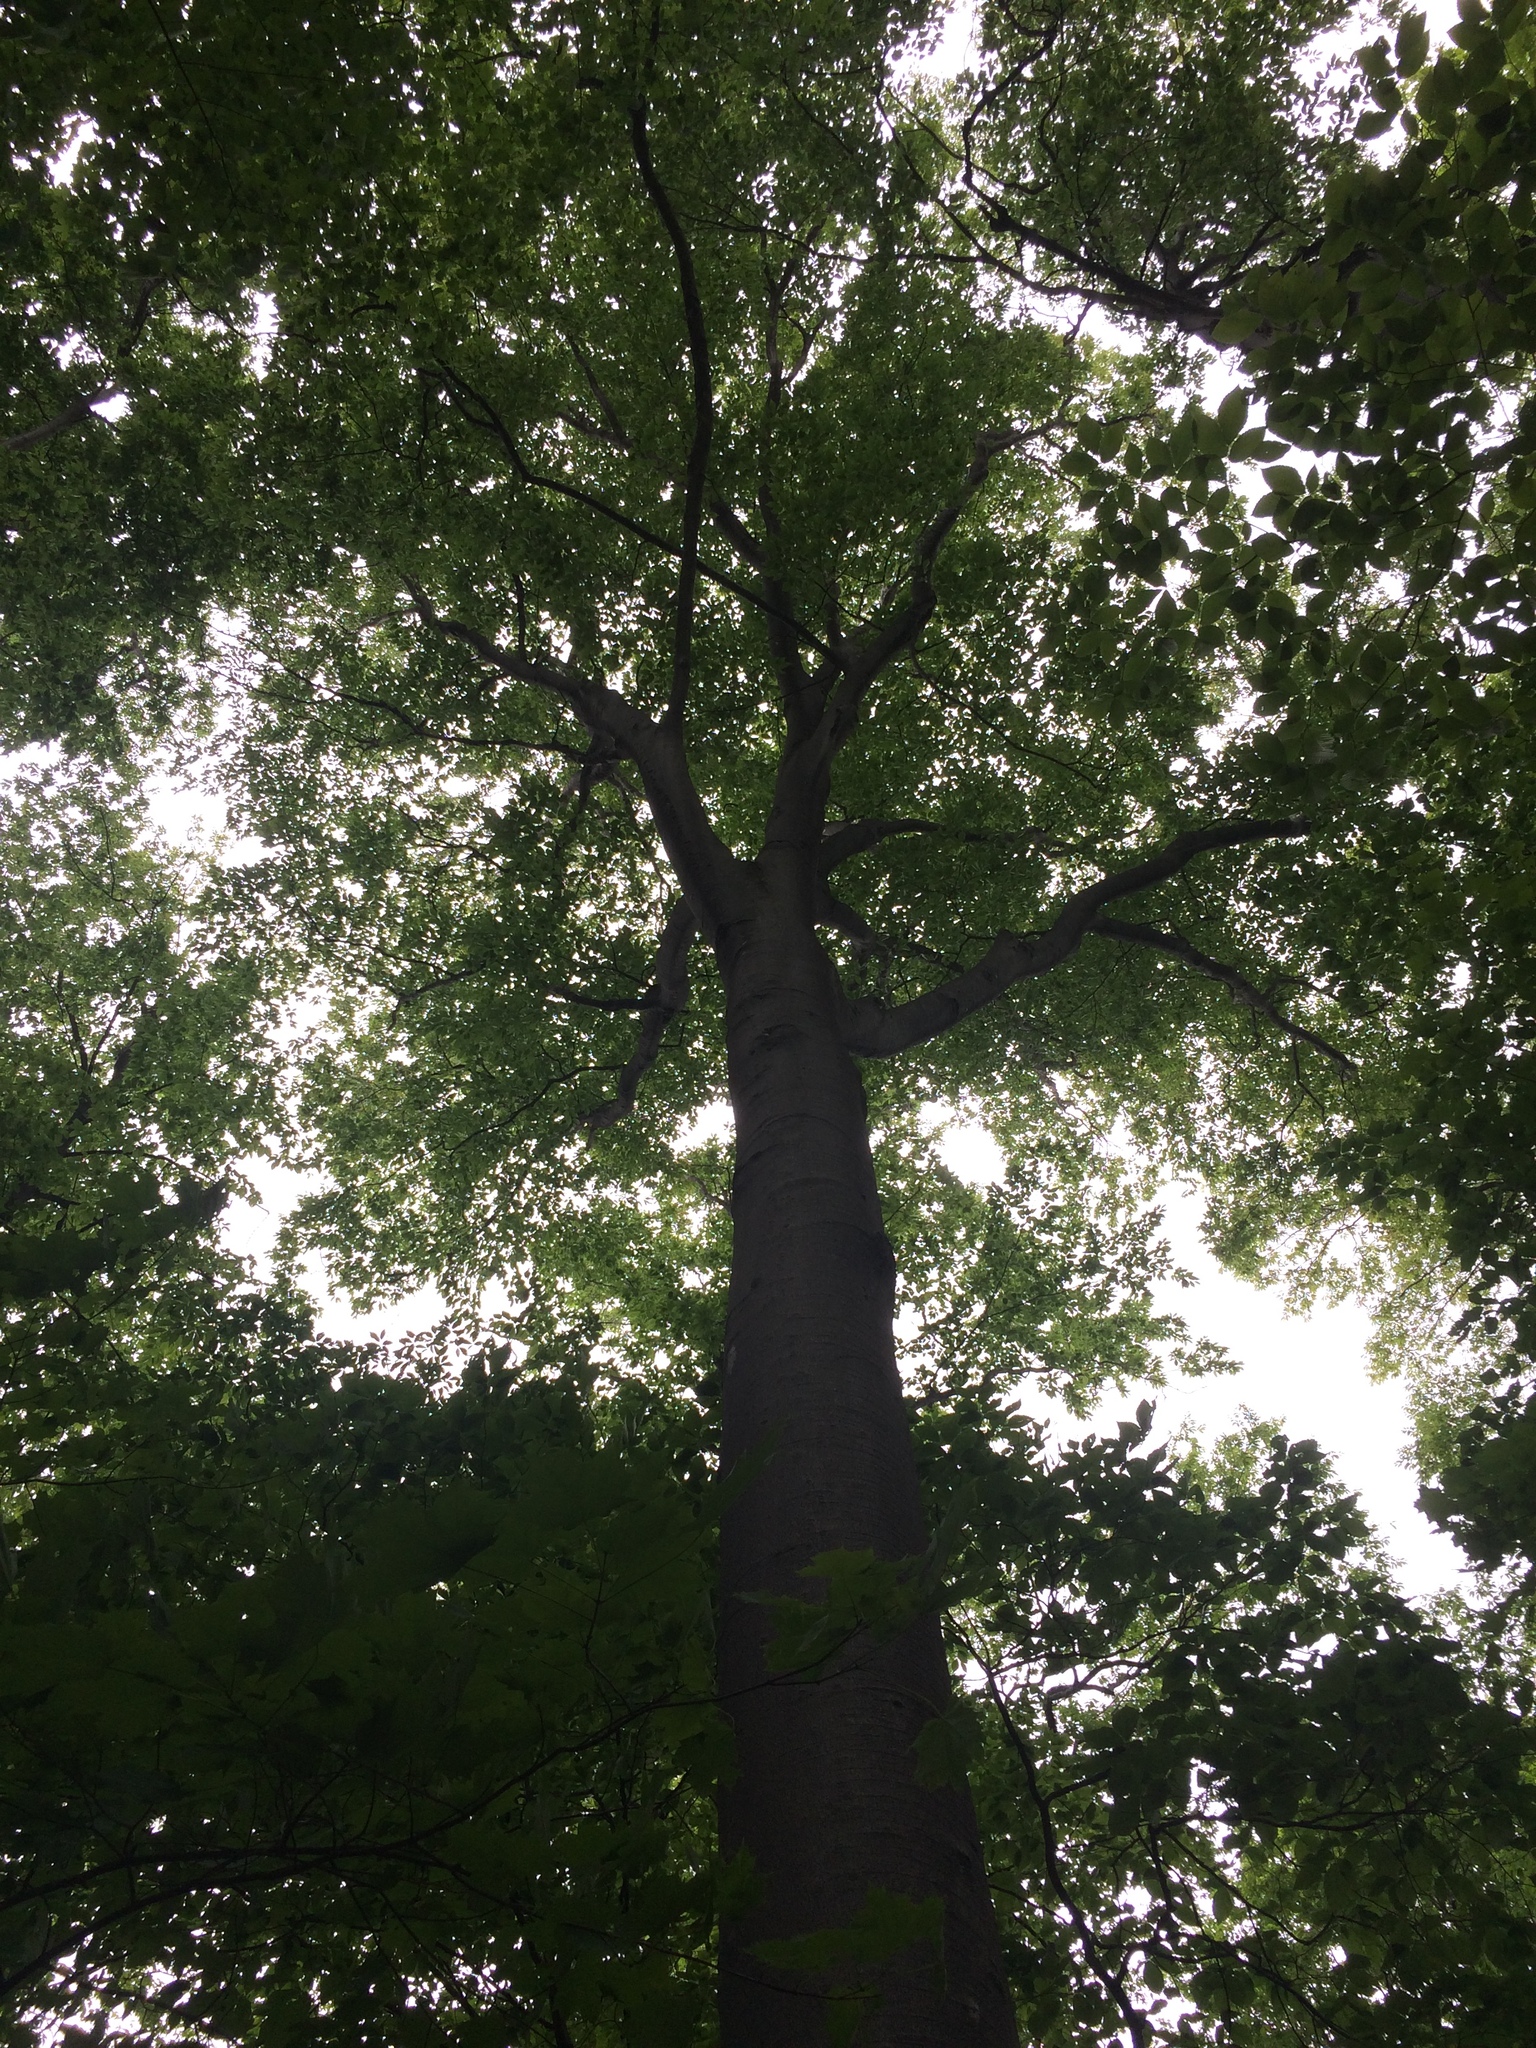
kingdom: Plantae
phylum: Tracheophyta
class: Magnoliopsida
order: Fagales
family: Fagaceae
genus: Fagus
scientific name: Fagus grandifolia
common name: American beech
